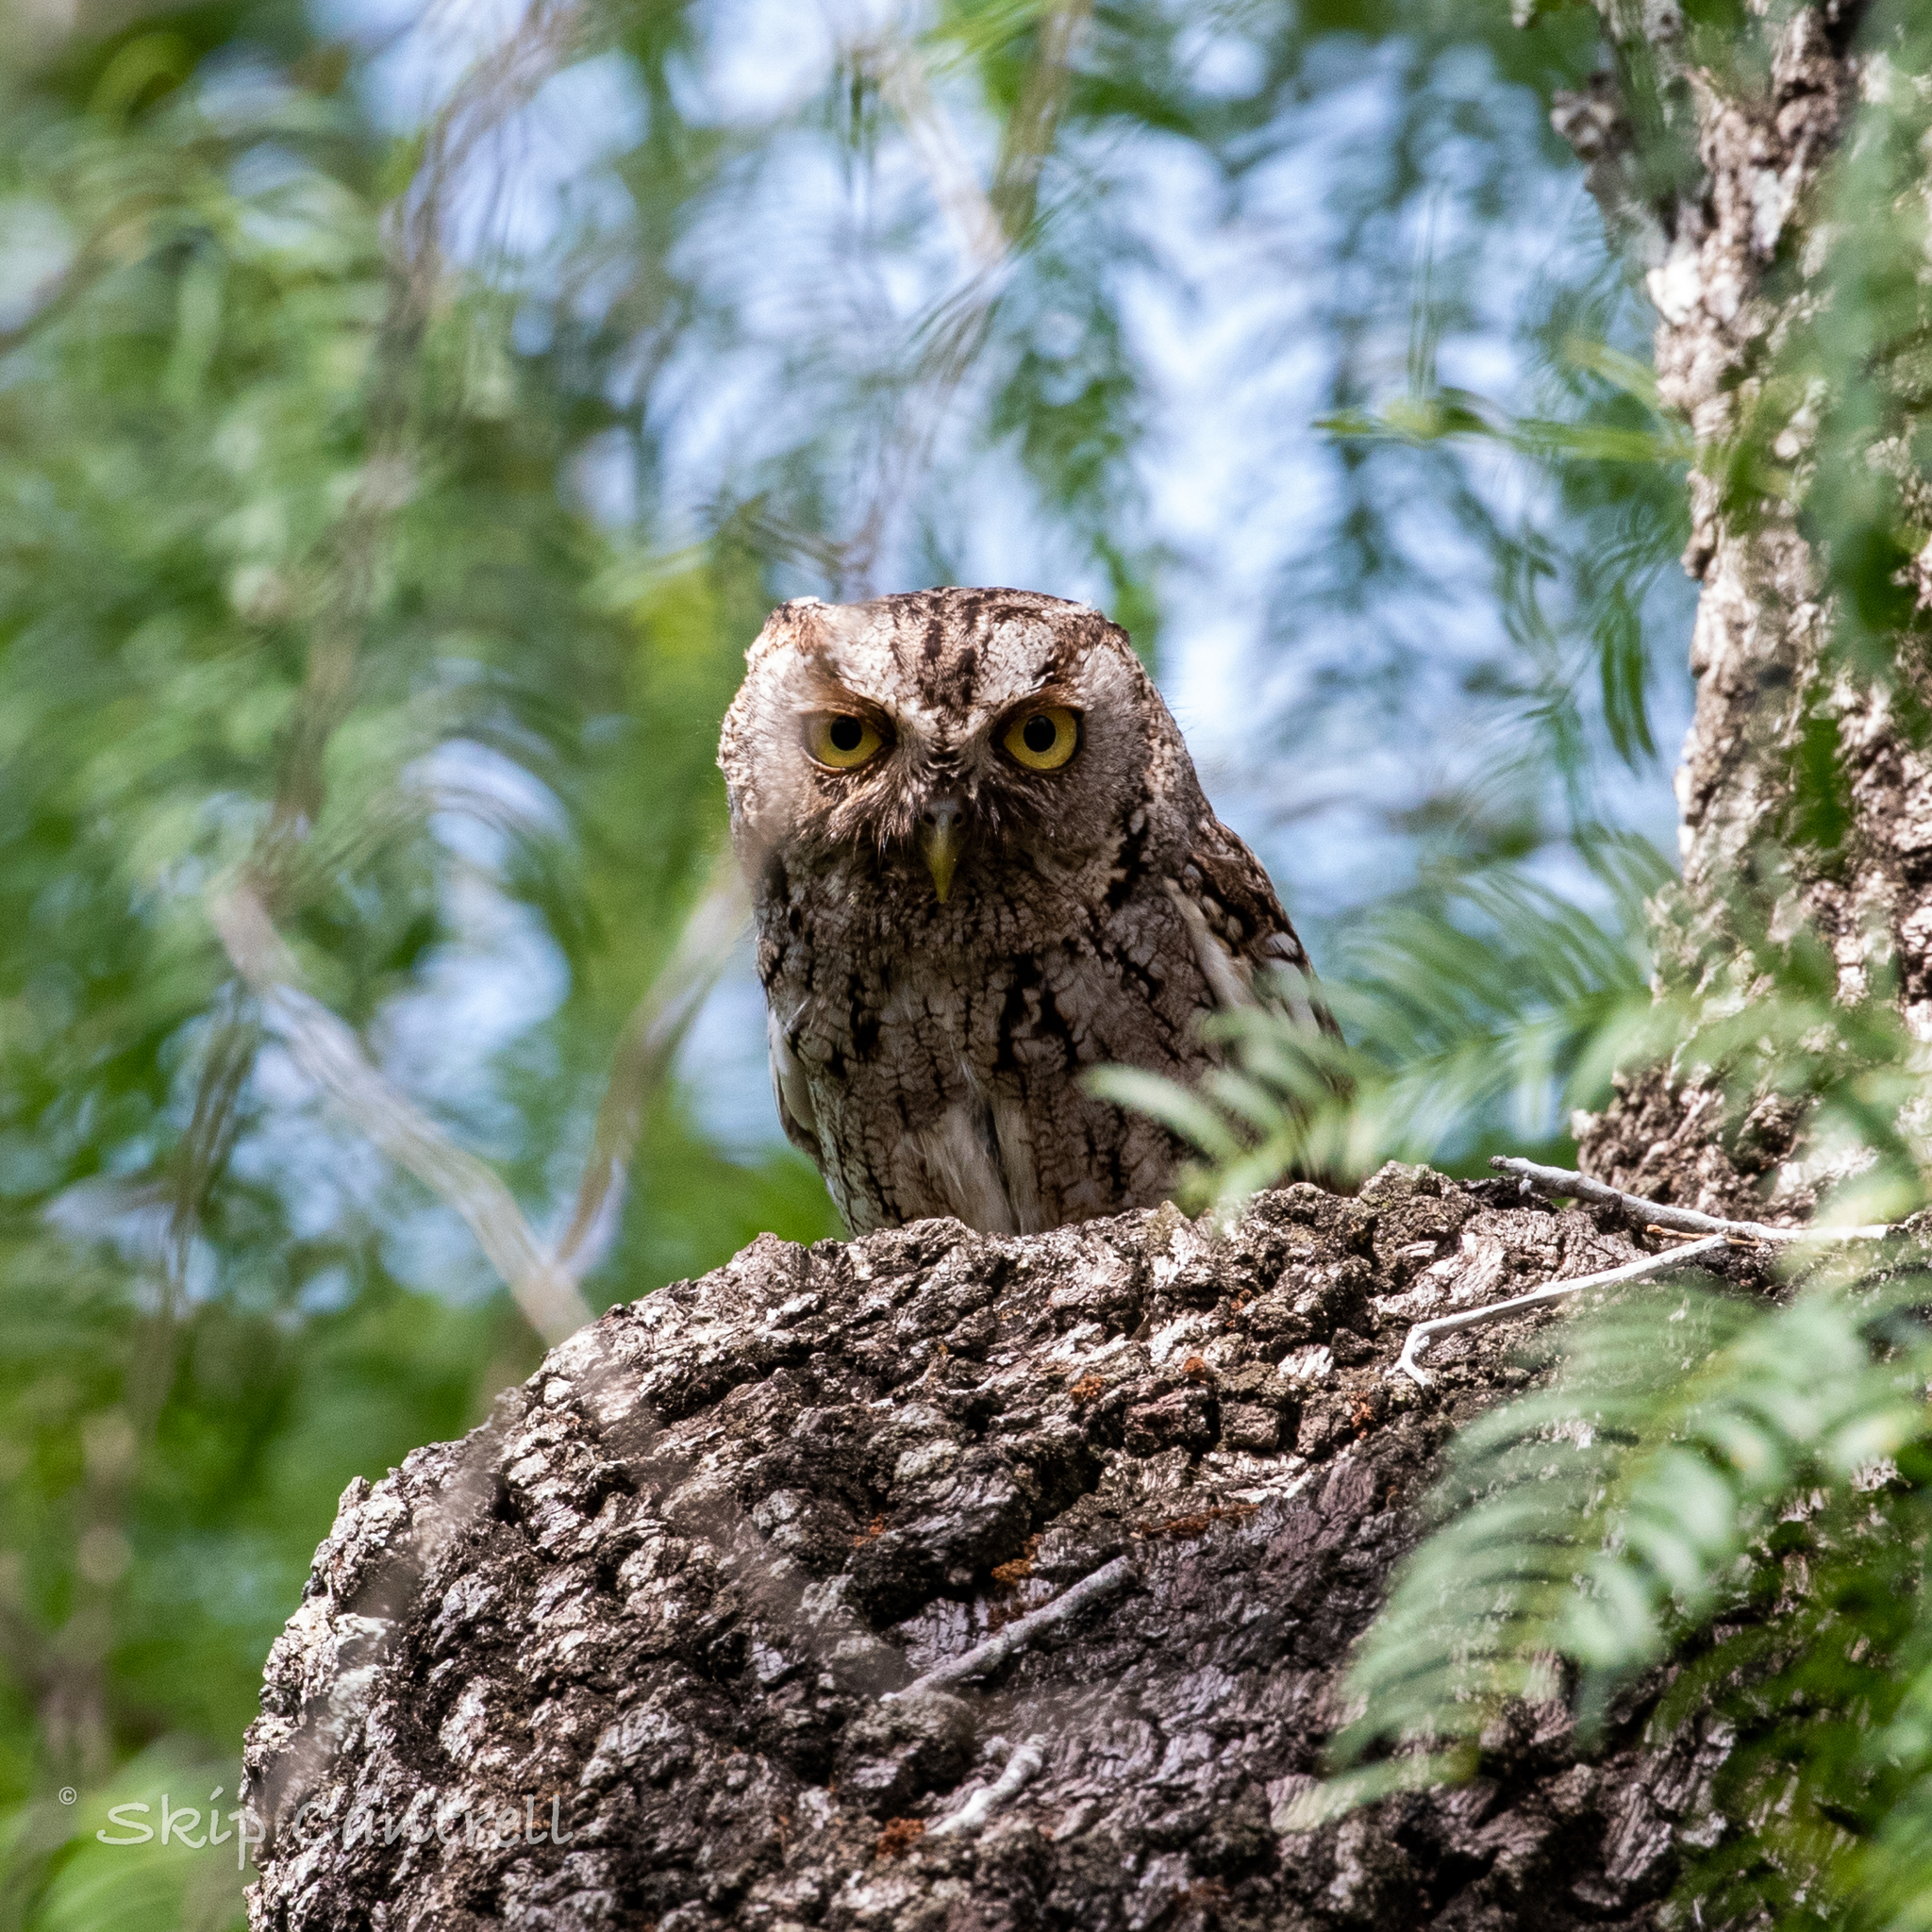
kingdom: Animalia
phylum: Chordata
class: Aves
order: Strigiformes
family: Strigidae
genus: Megascops
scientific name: Megascops asio
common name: Eastern screech-owl
